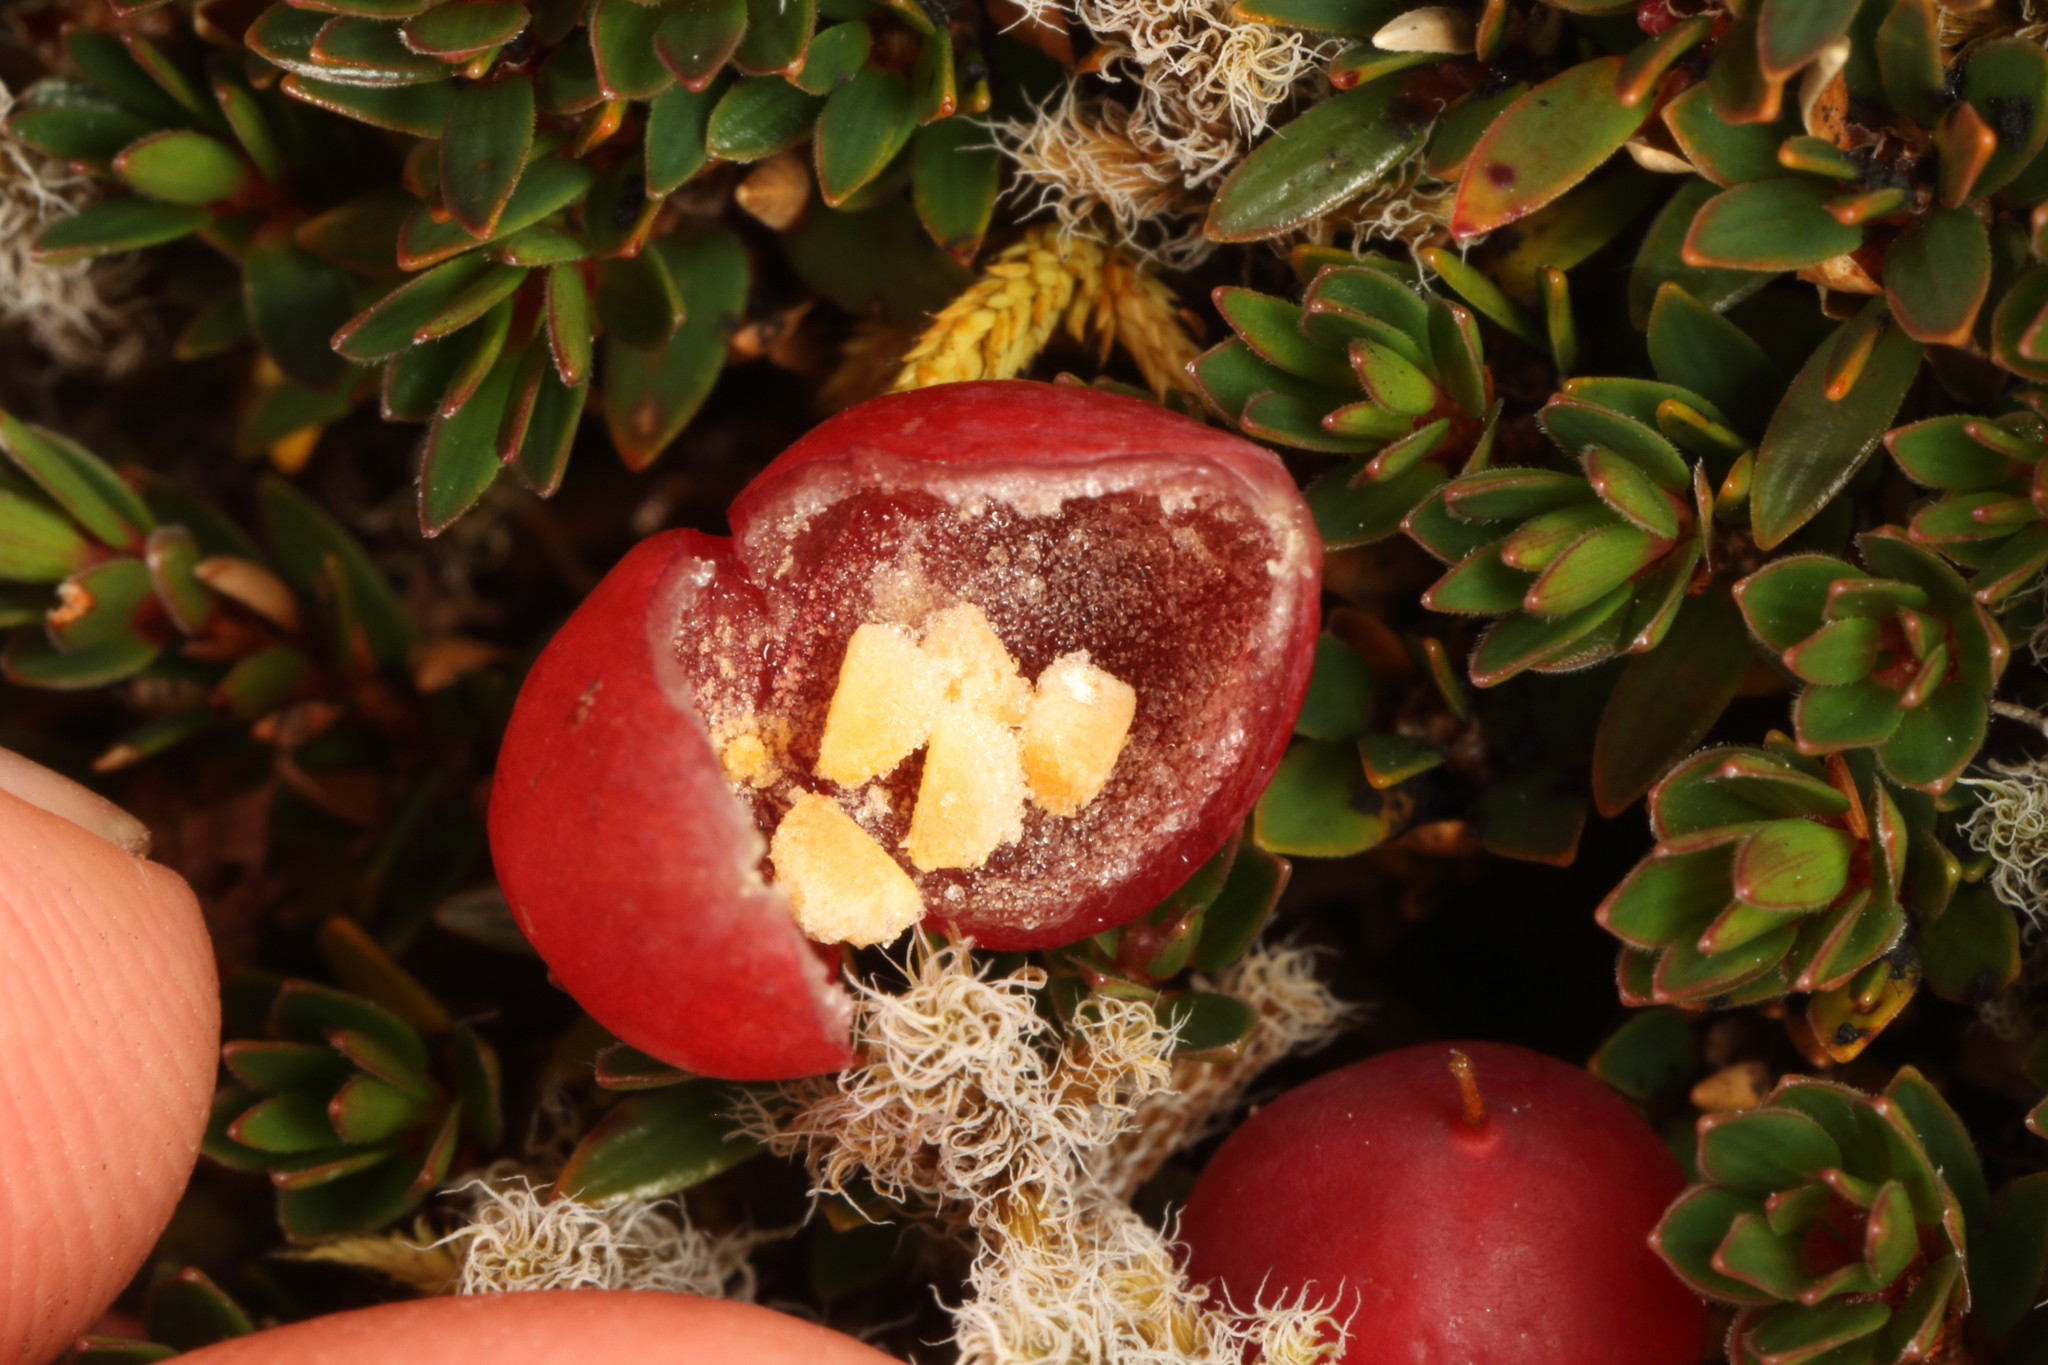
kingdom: Plantae
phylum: Tracheophyta
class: Magnoliopsida
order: Ericales
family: Ericaceae
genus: Pentachondra
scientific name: Pentachondra pumila
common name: Carpet-heath
